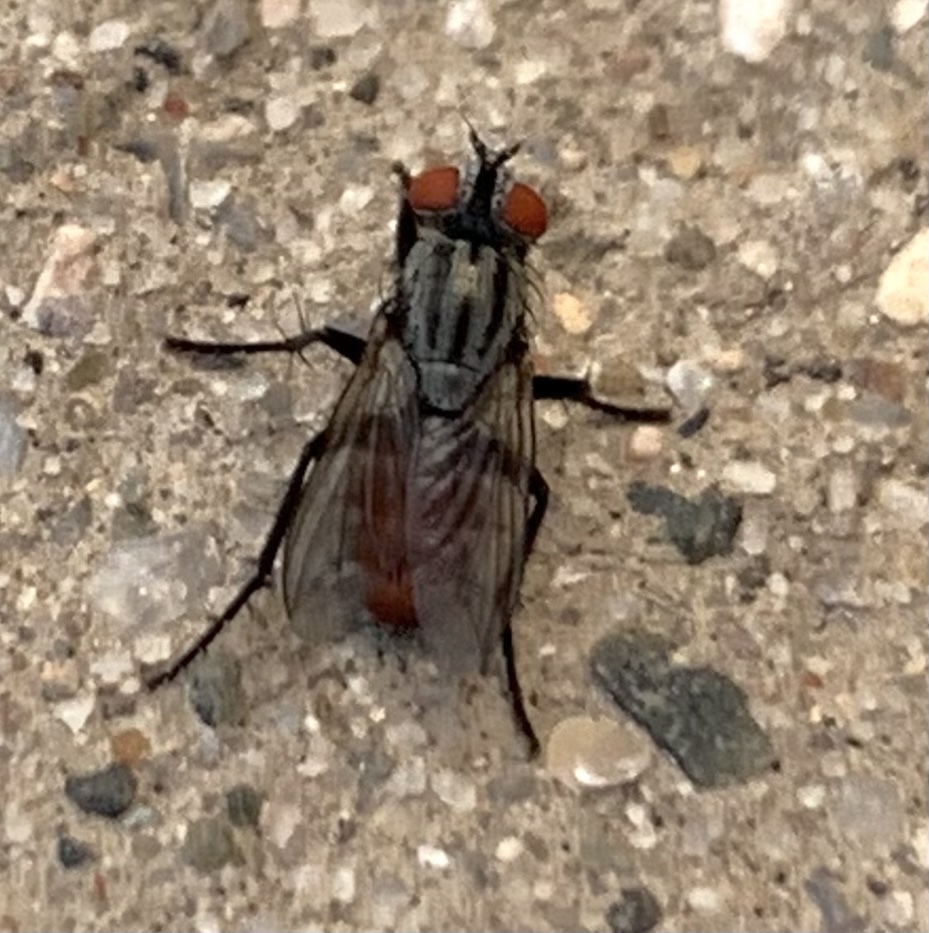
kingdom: Animalia
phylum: Arthropoda
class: Insecta
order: Diptera
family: Sarcophagidae
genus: Rafaelia
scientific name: Rafaelia rufiventris
